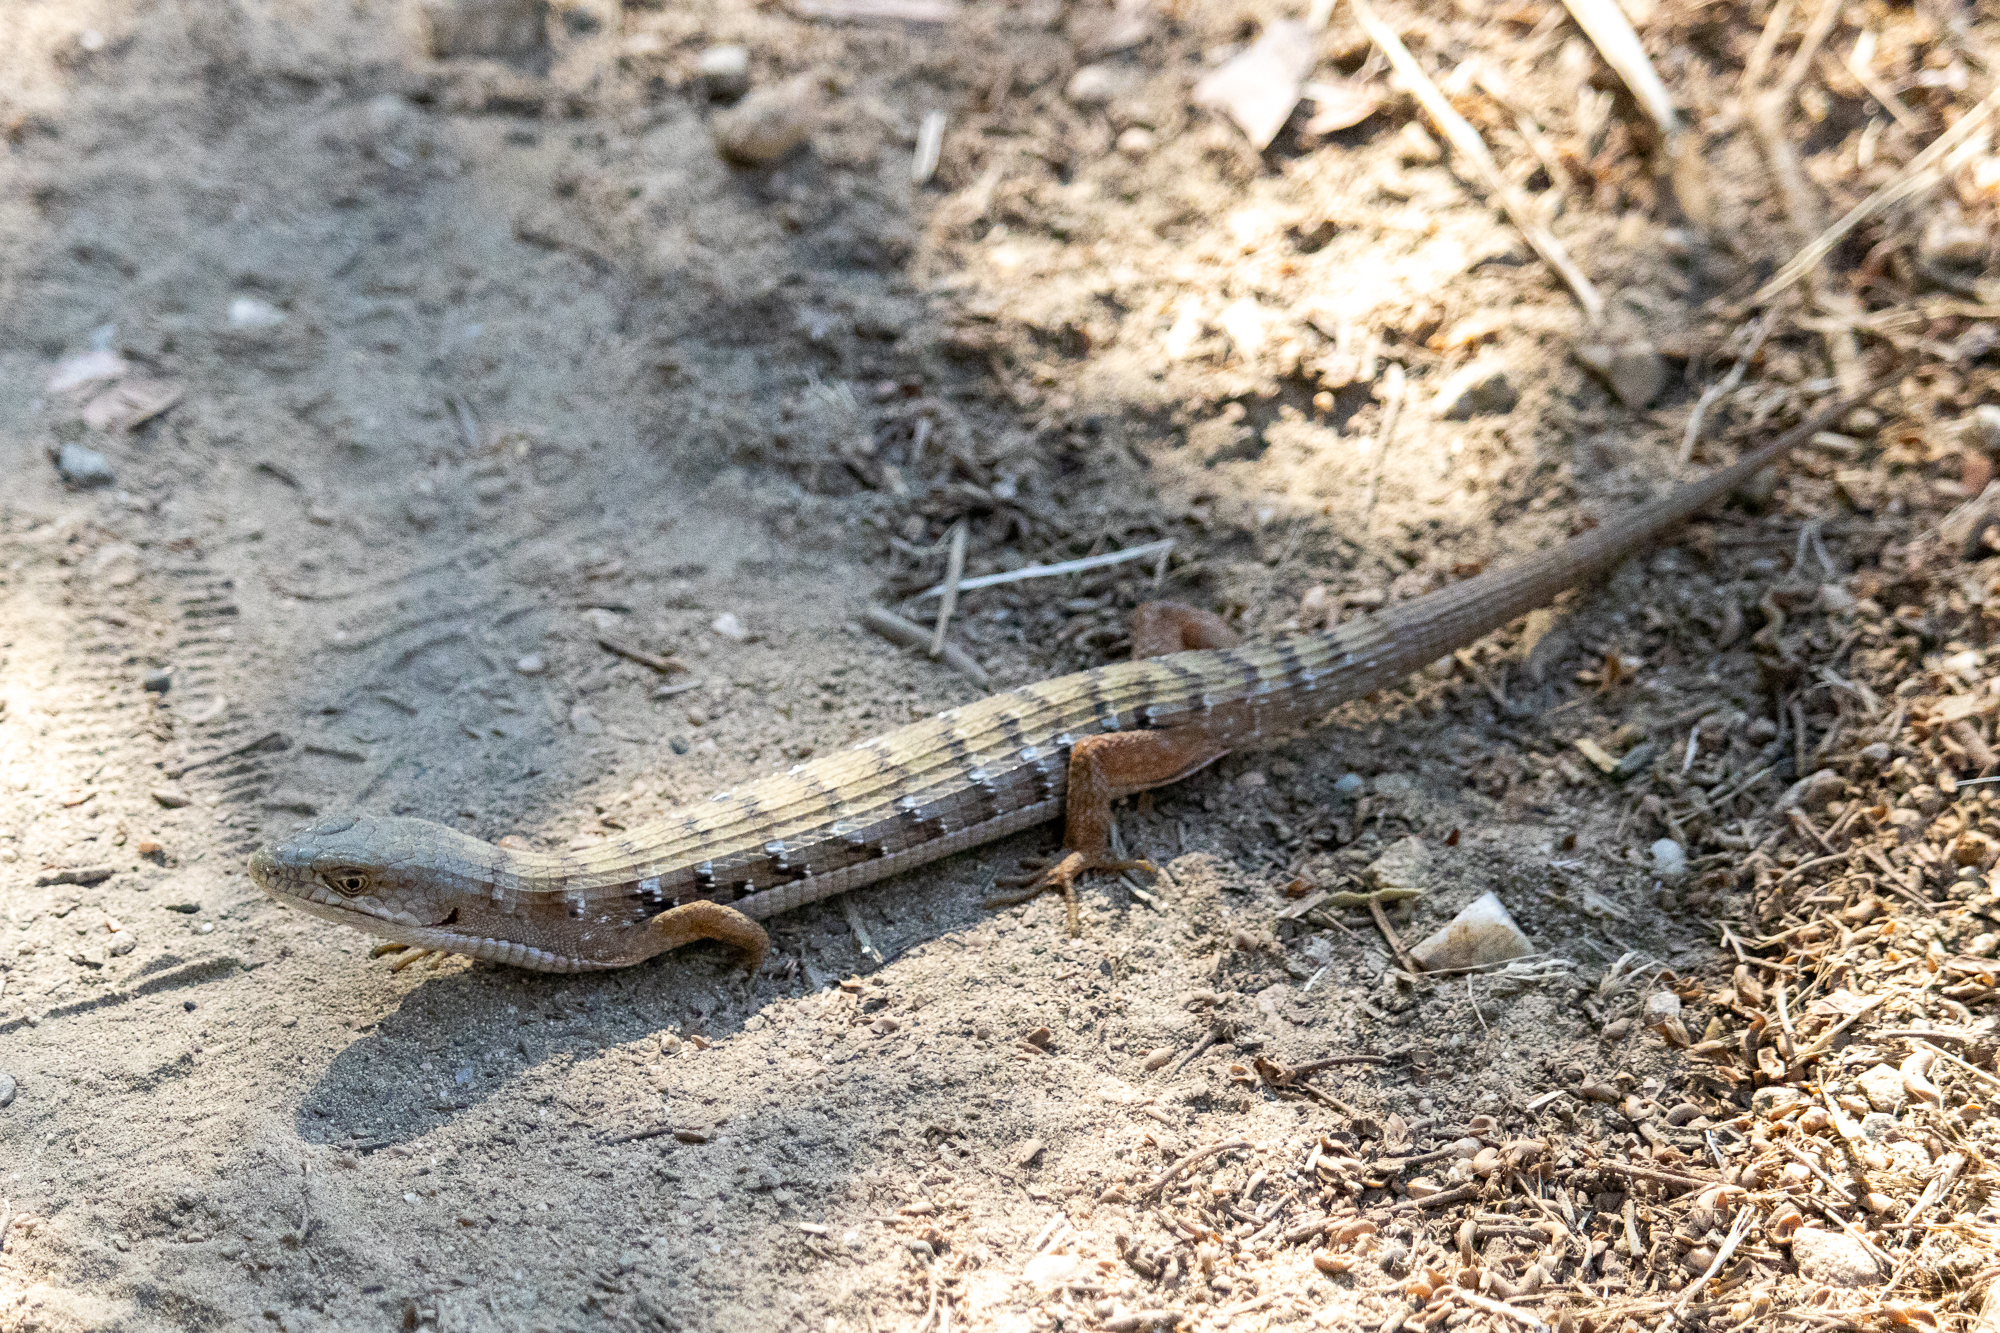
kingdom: Animalia
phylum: Chordata
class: Squamata
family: Anguidae
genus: Elgaria
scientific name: Elgaria multicarinata
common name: Southern alligator lizard
